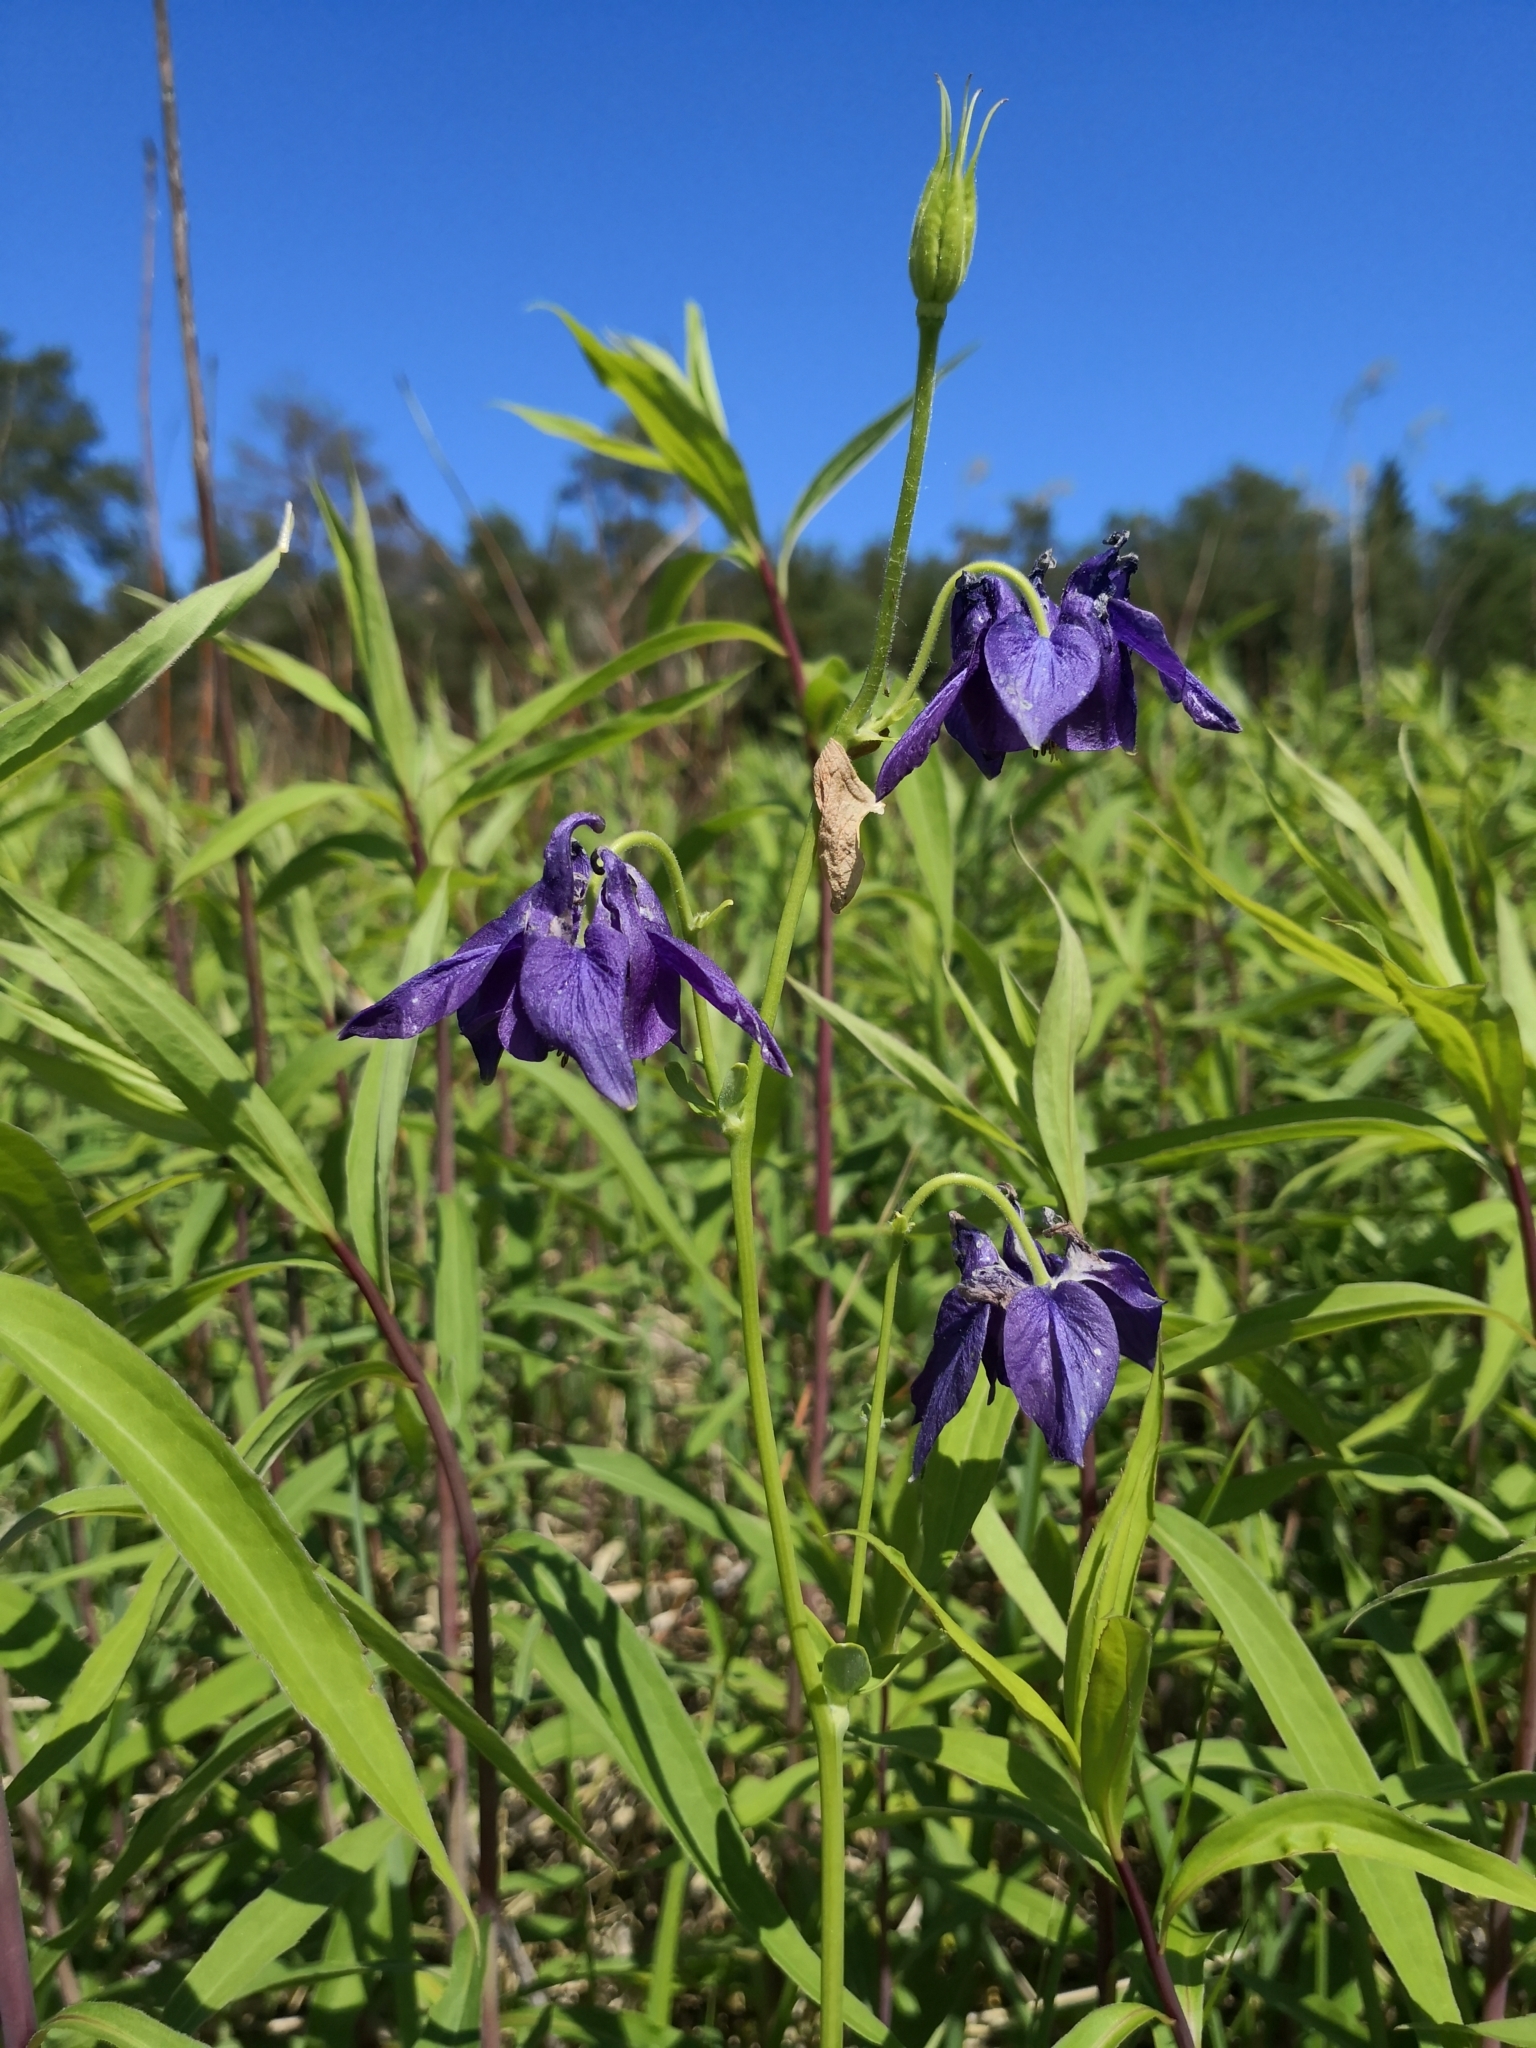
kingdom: Plantae
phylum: Tracheophyta
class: Magnoliopsida
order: Ranunculales
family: Ranunculaceae
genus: Aquilegia
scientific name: Aquilegia vulgaris
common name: Columbine
